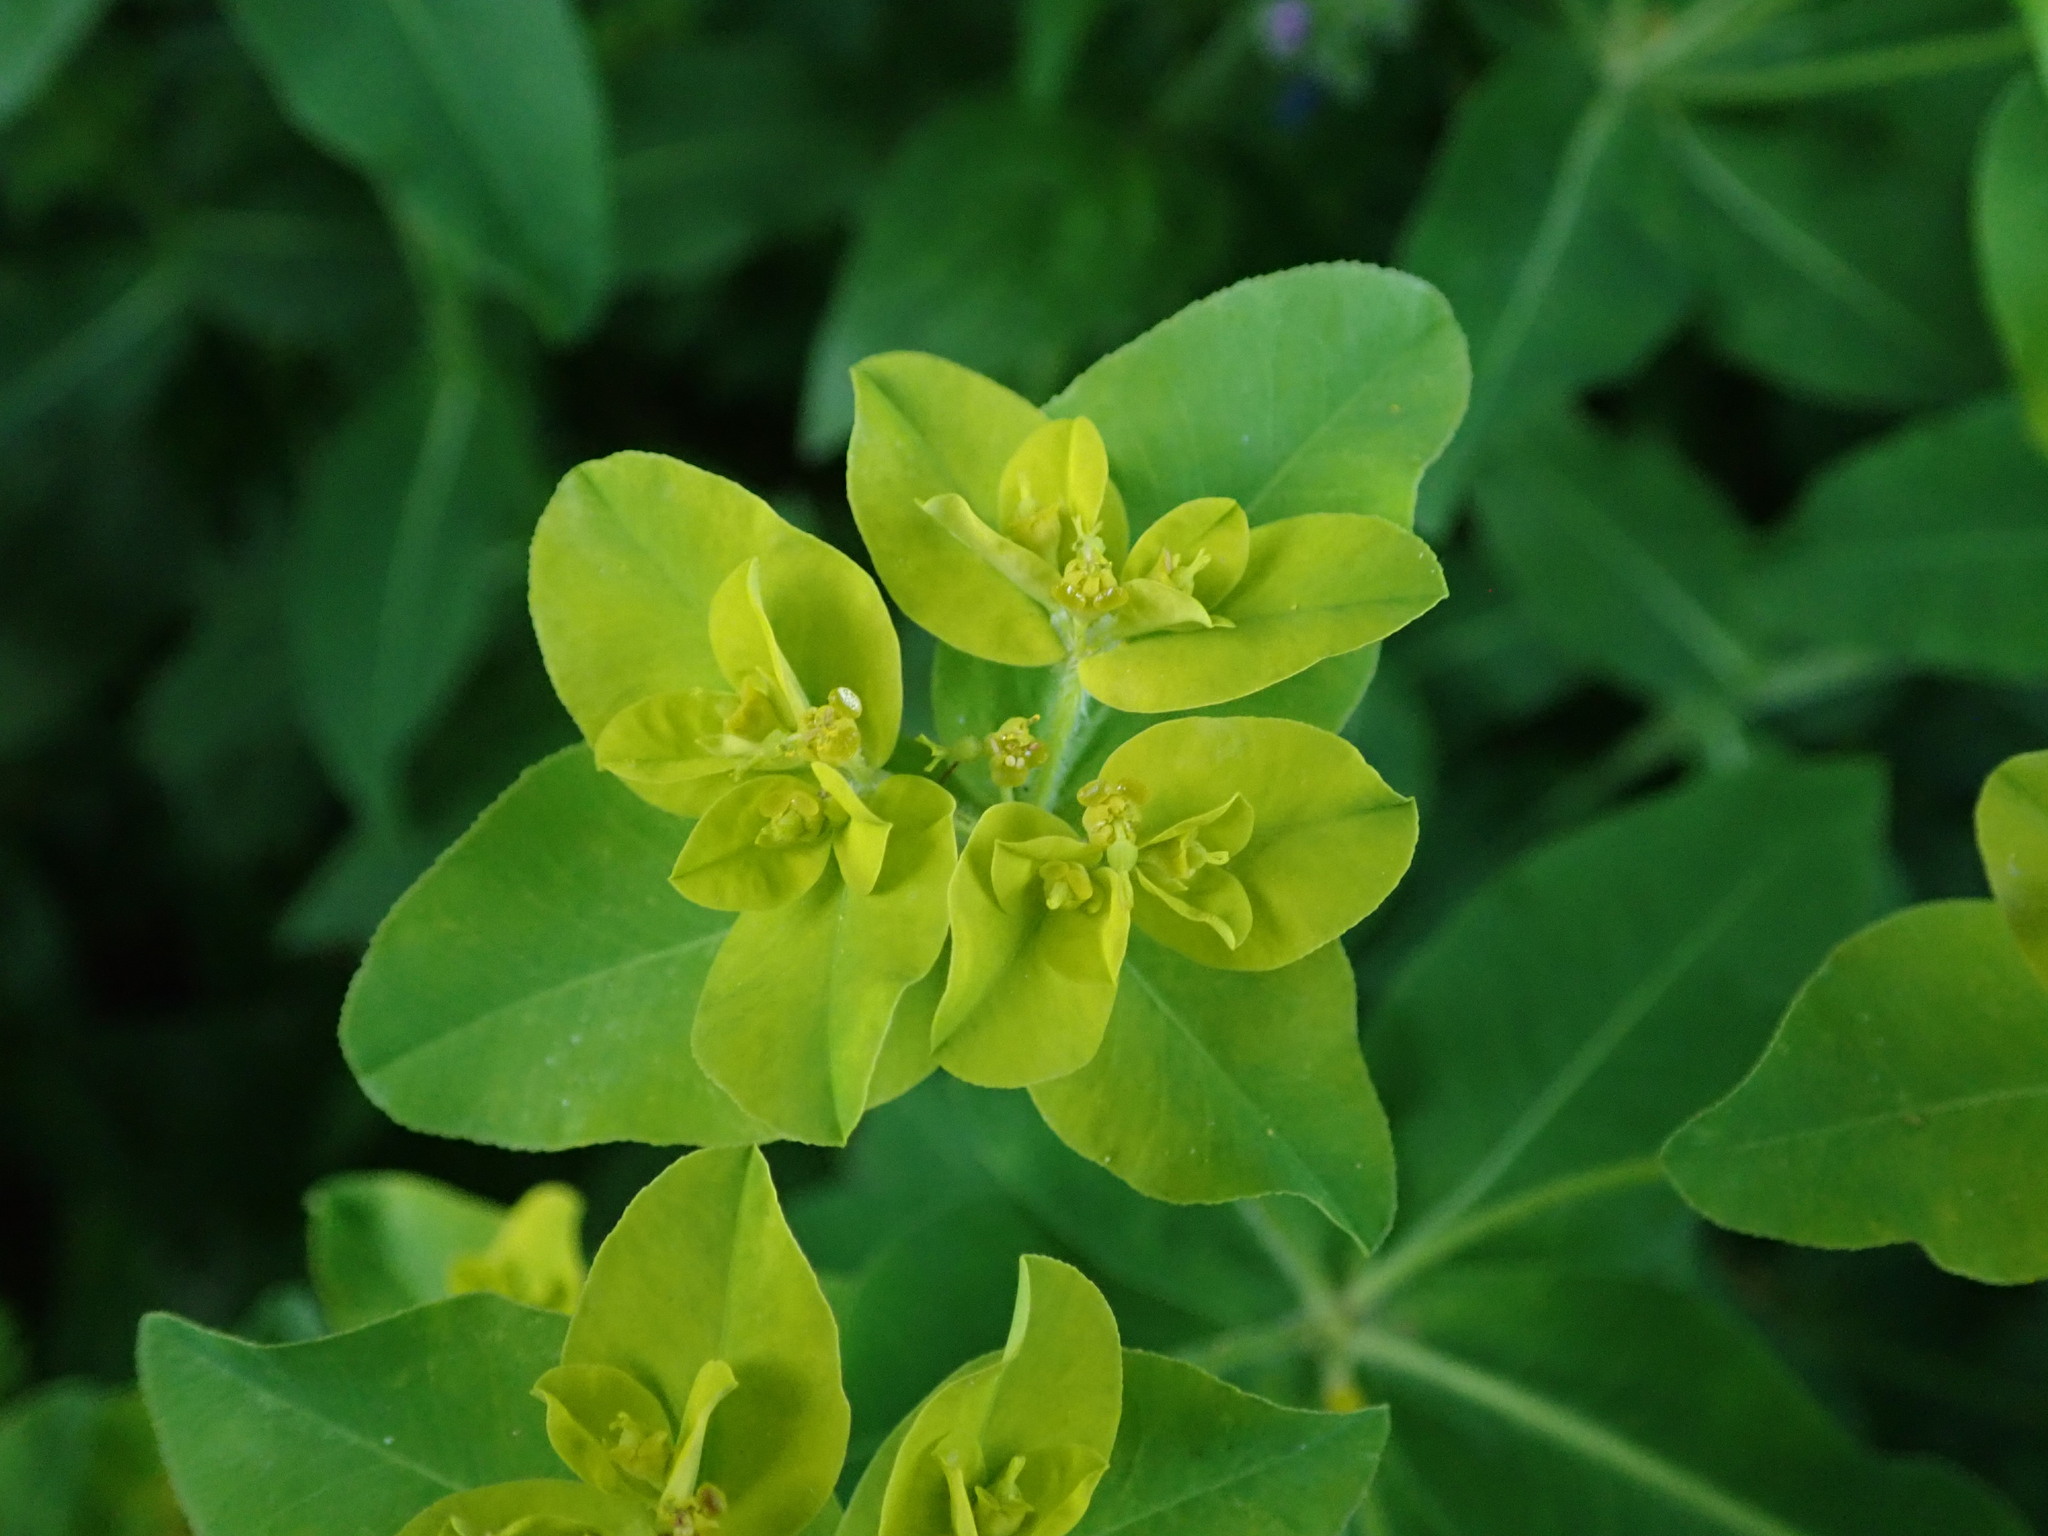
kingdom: Plantae
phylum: Tracheophyta
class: Magnoliopsida
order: Malpighiales
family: Euphorbiaceae
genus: Euphorbia
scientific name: Euphorbia oblongata
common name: Balkan spurge
